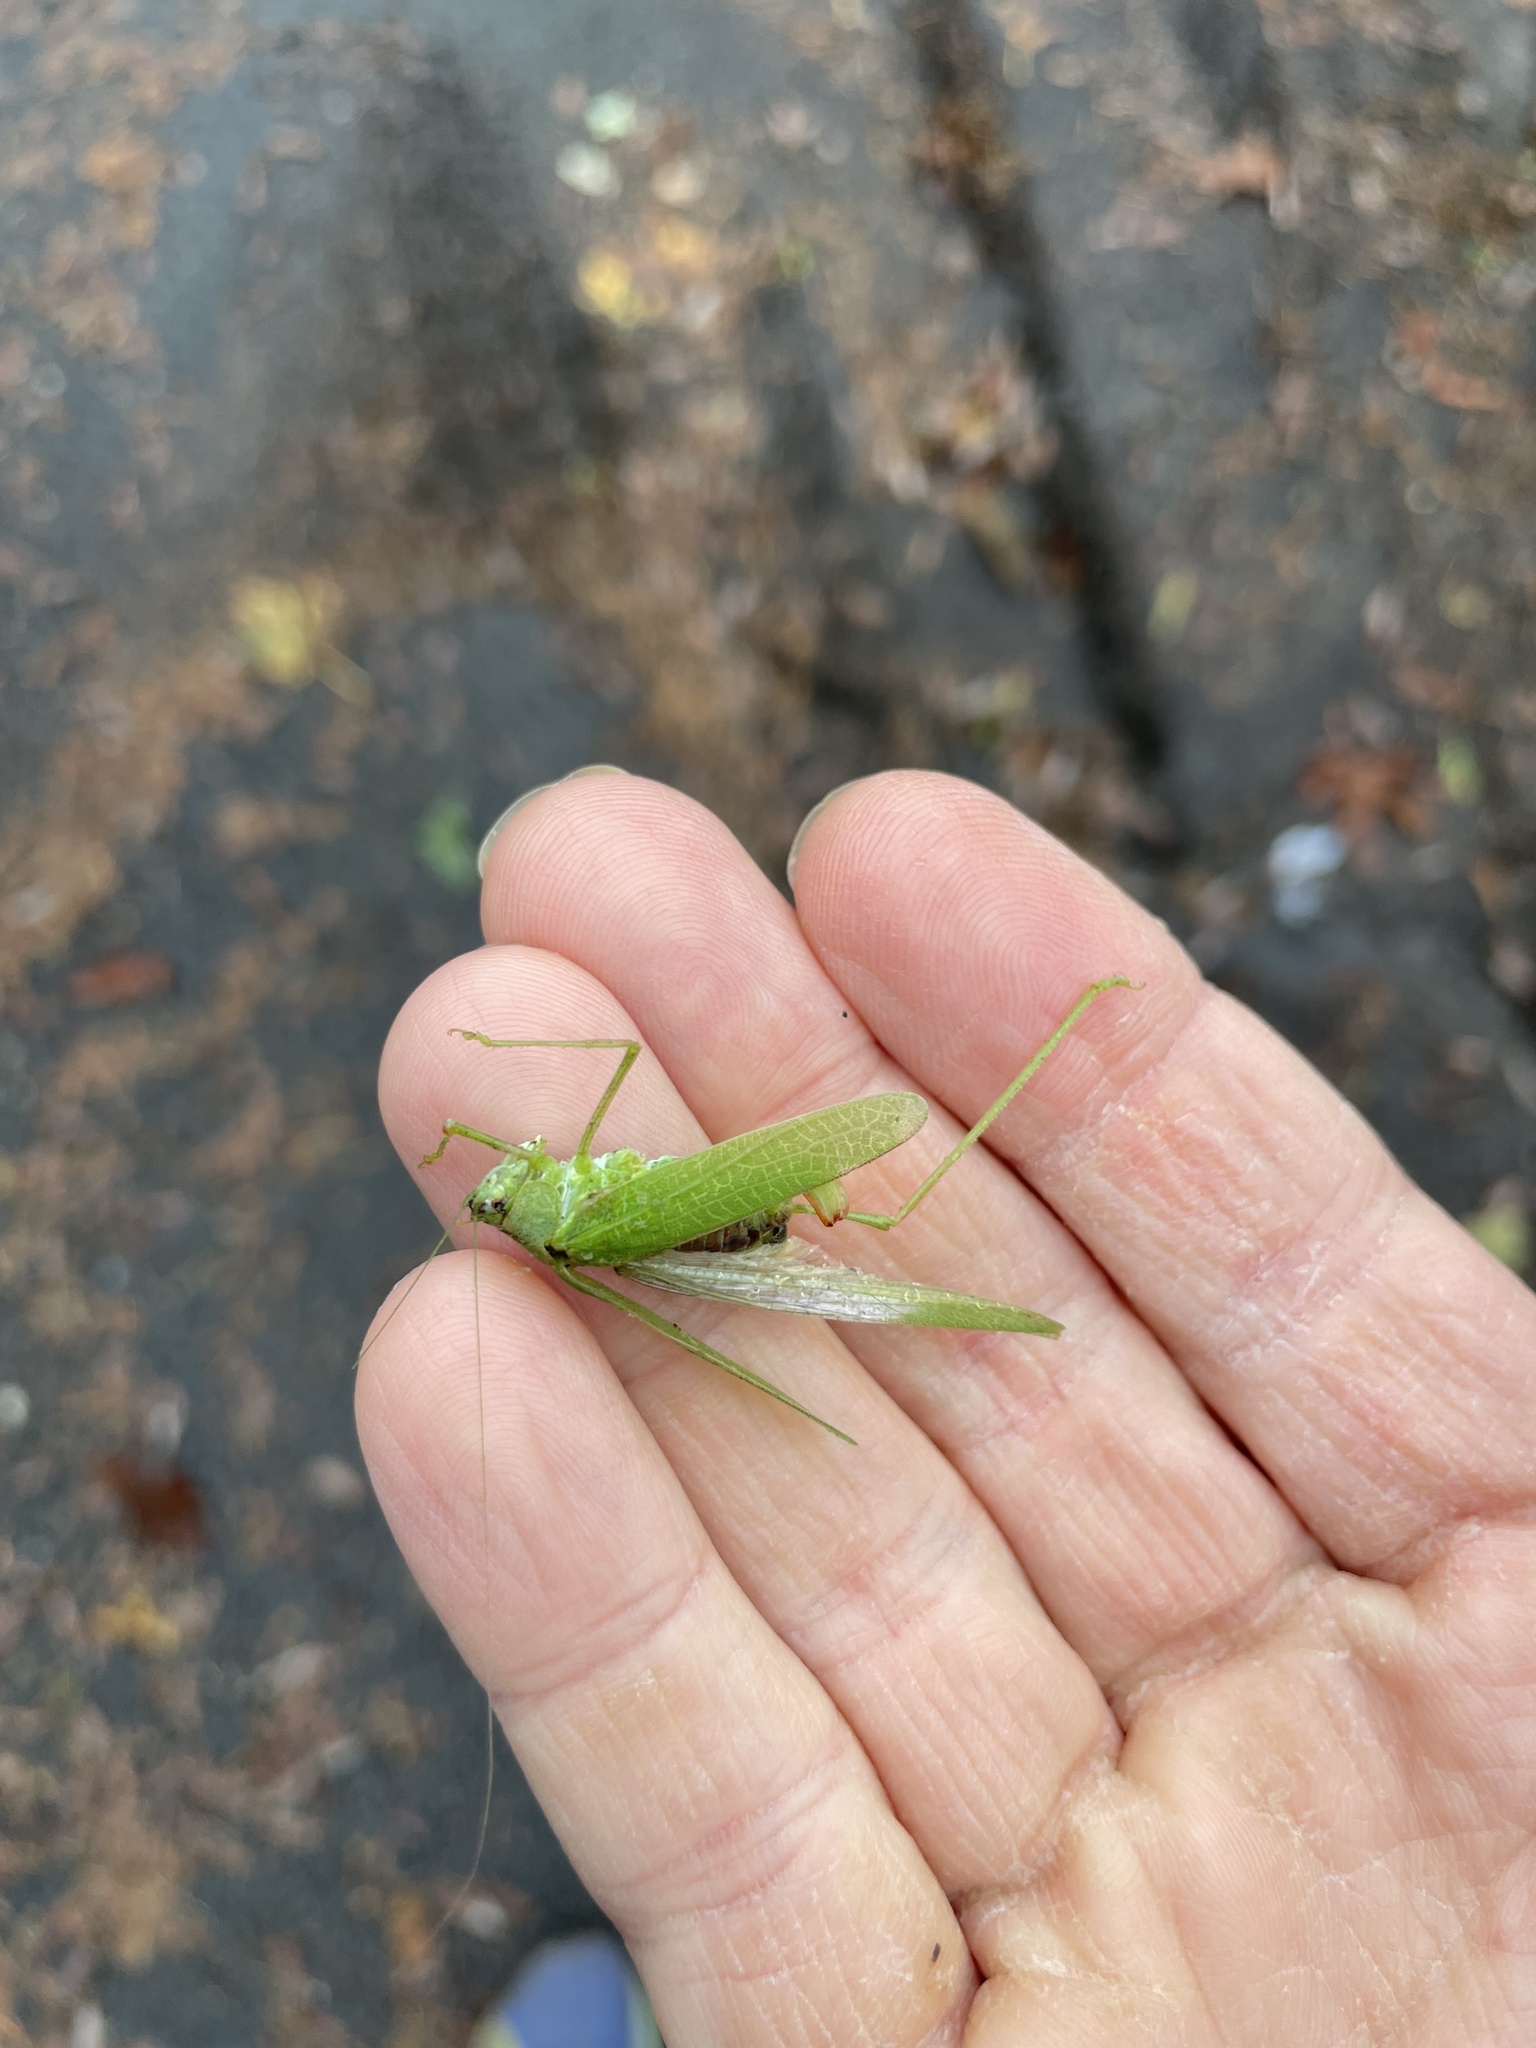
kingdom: Animalia
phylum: Arthropoda
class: Insecta
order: Orthoptera
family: Tettigoniidae
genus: Phaneroptera
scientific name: Phaneroptera nana
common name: Southern sickle bush-cricket
